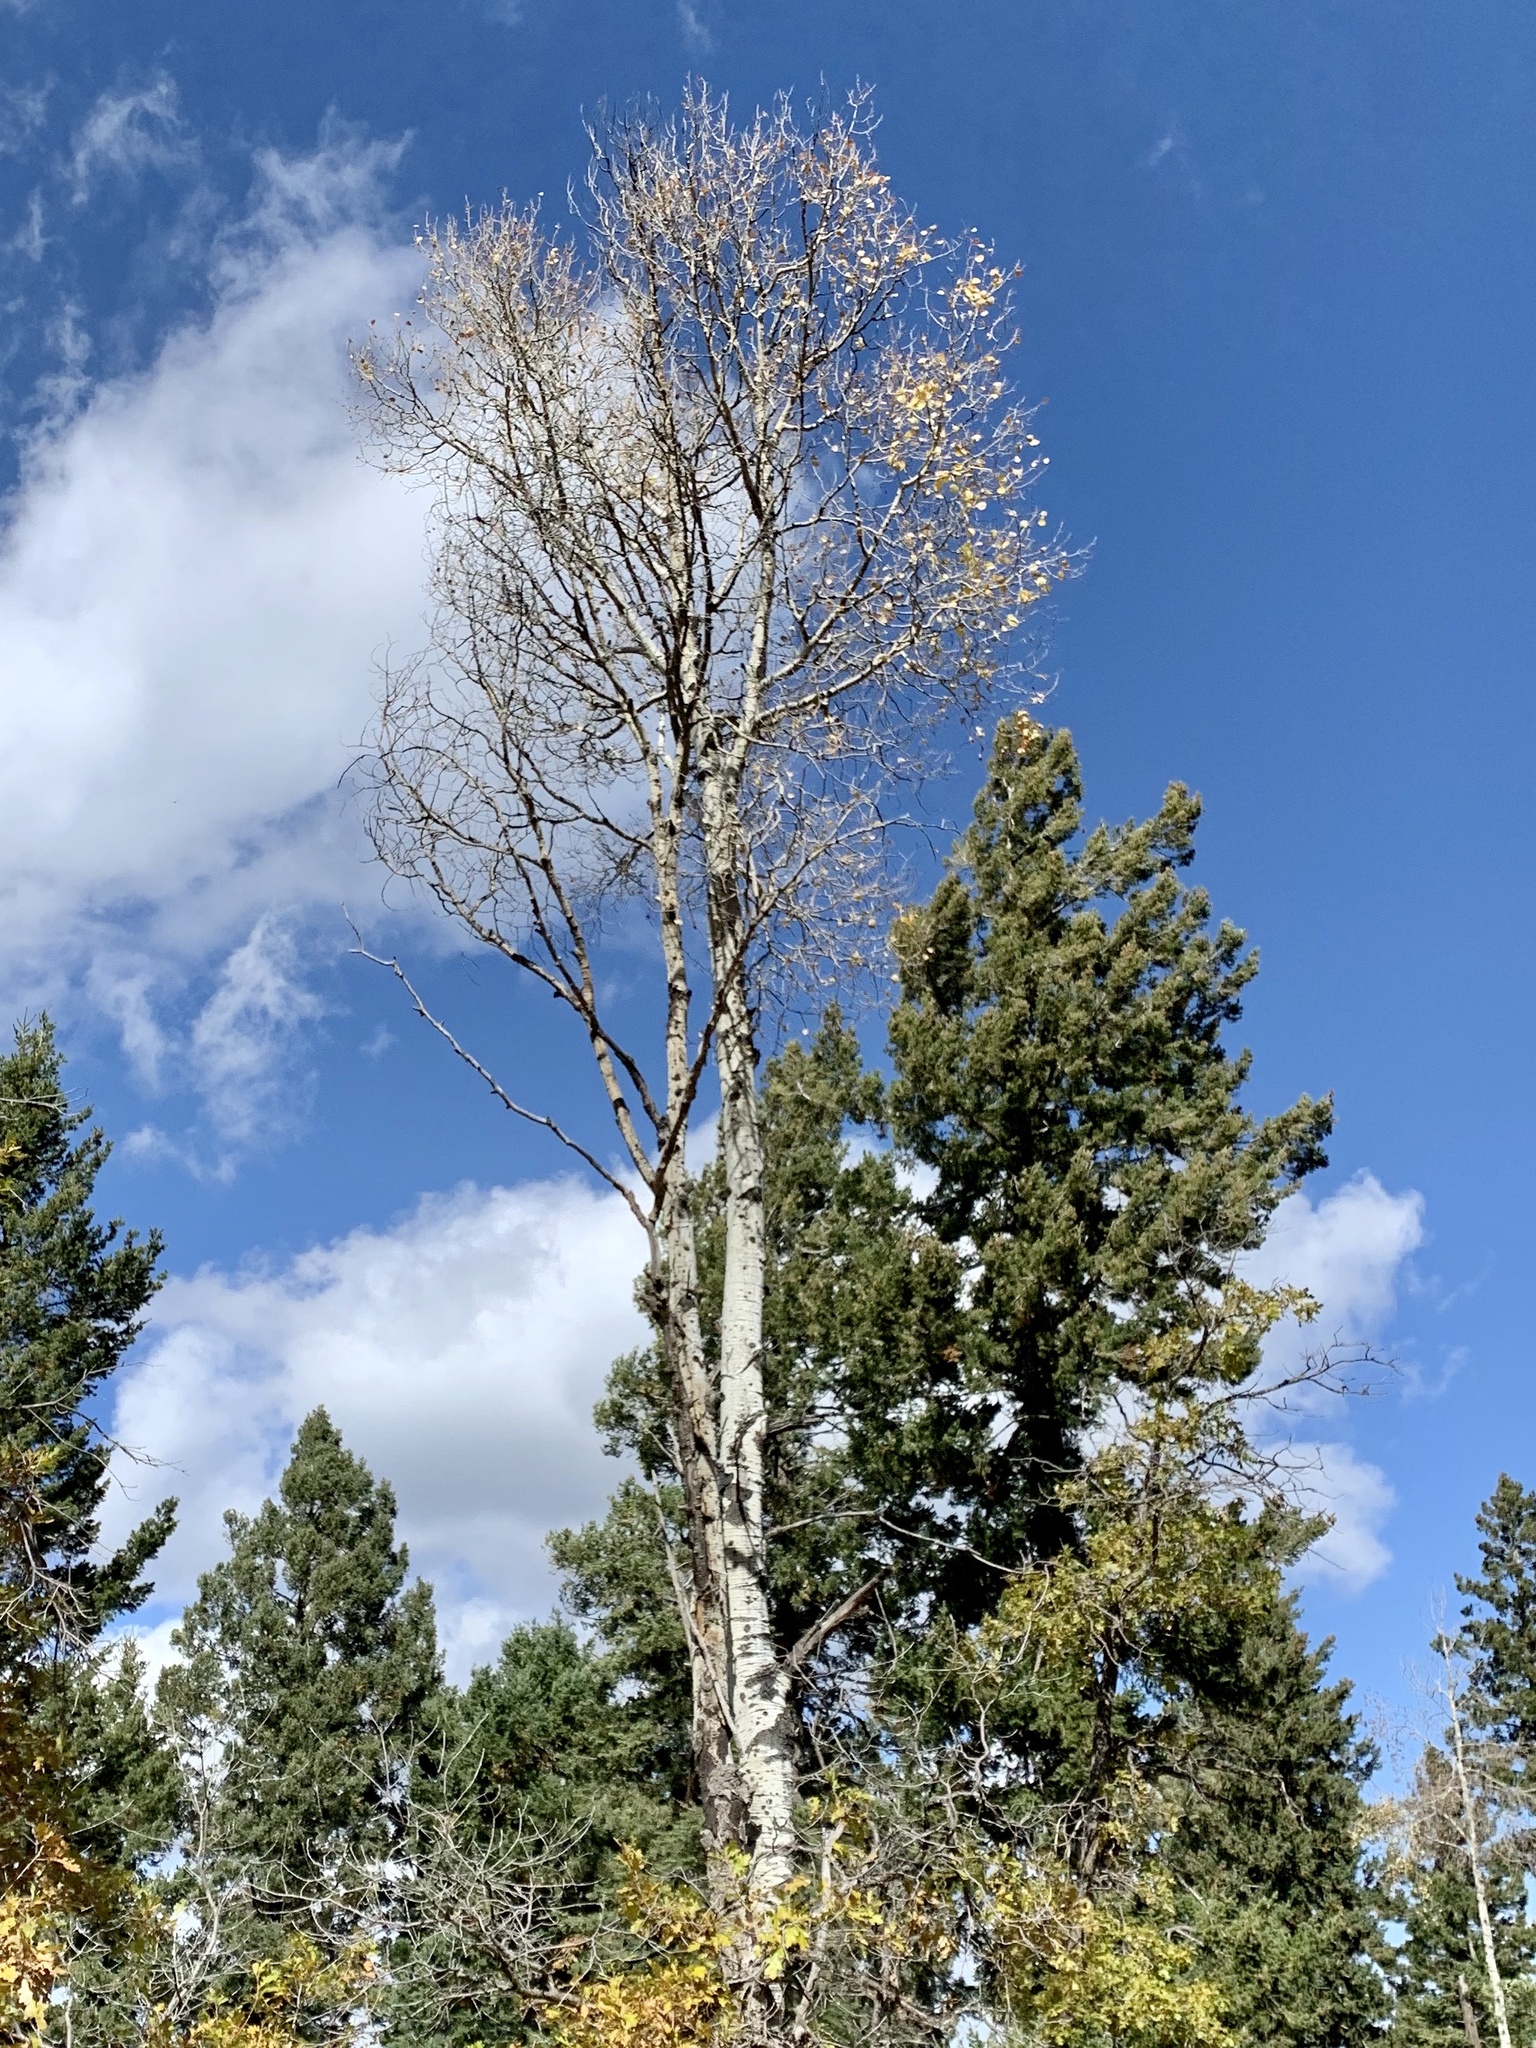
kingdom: Plantae
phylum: Tracheophyta
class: Magnoliopsida
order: Malpighiales
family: Salicaceae
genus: Populus
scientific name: Populus tremuloides
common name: Quaking aspen
